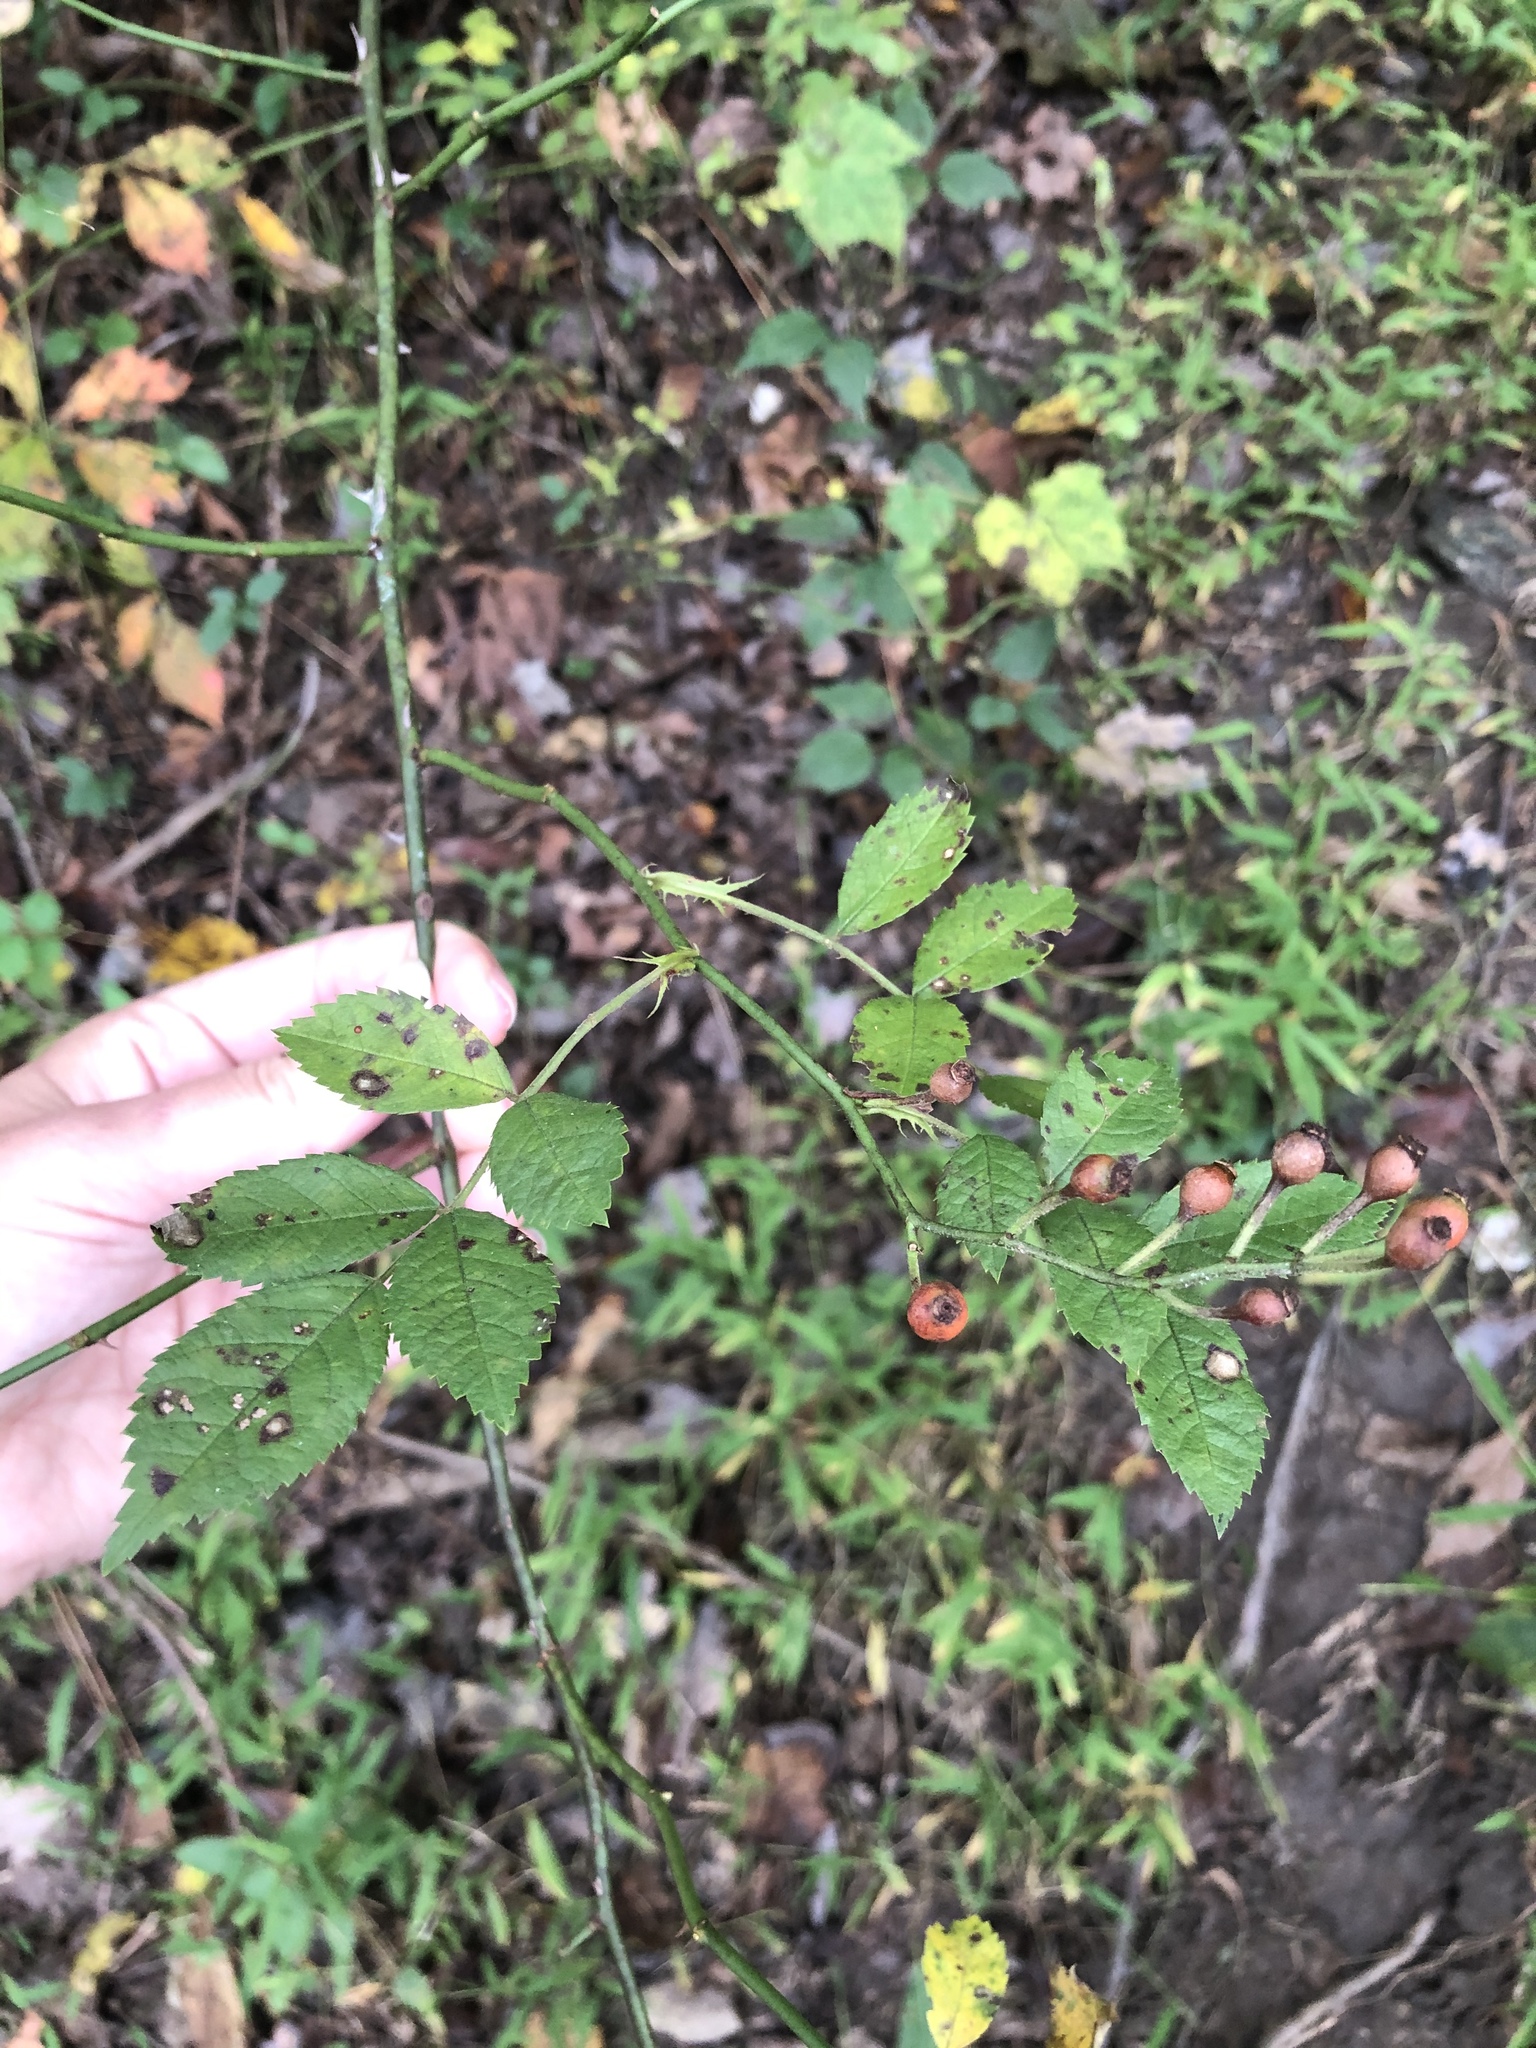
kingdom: Plantae
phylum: Tracheophyta
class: Magnoliopsida
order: Rosales
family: Rosaceae
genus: Rosa
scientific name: Rosa multiflora
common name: Multiflora rose
